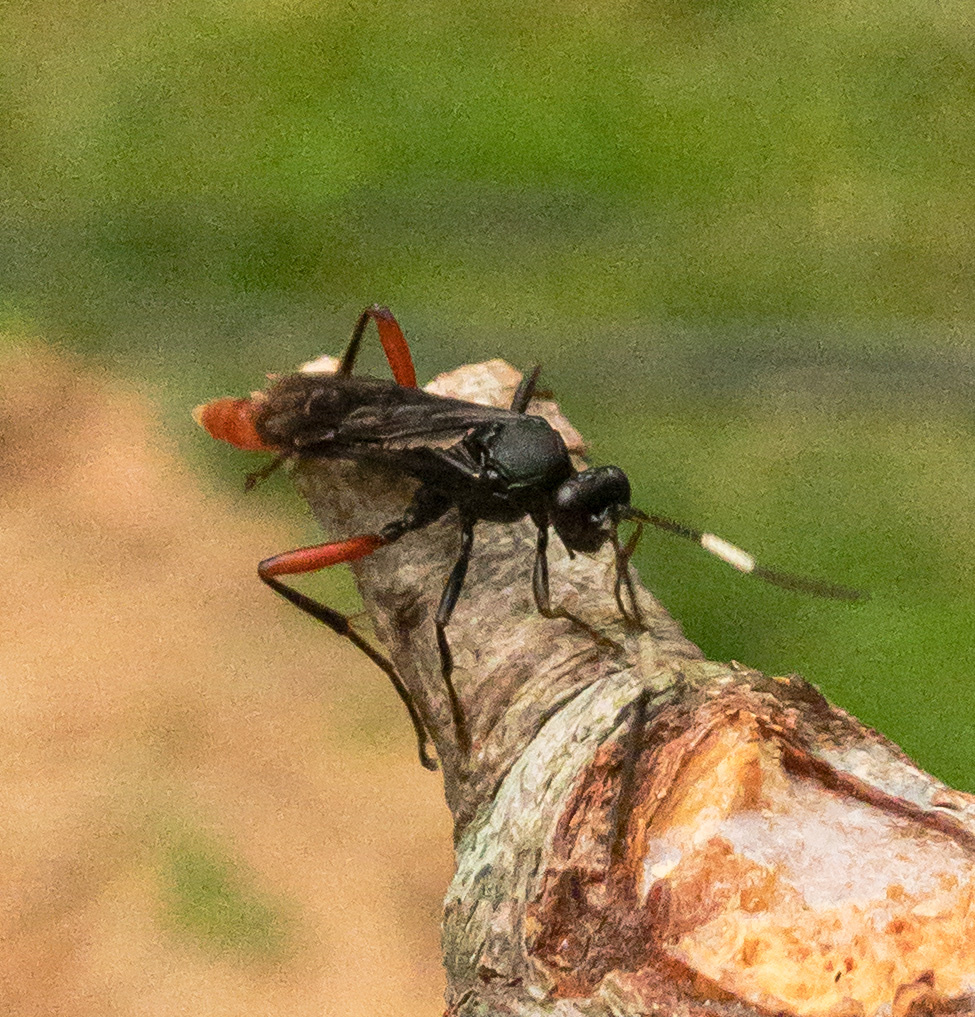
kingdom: Animalia
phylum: Arthropoda
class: Insecta
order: Hymenoptera
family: Ichneumonidae
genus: Limonethe
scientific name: Limonethe maurator
